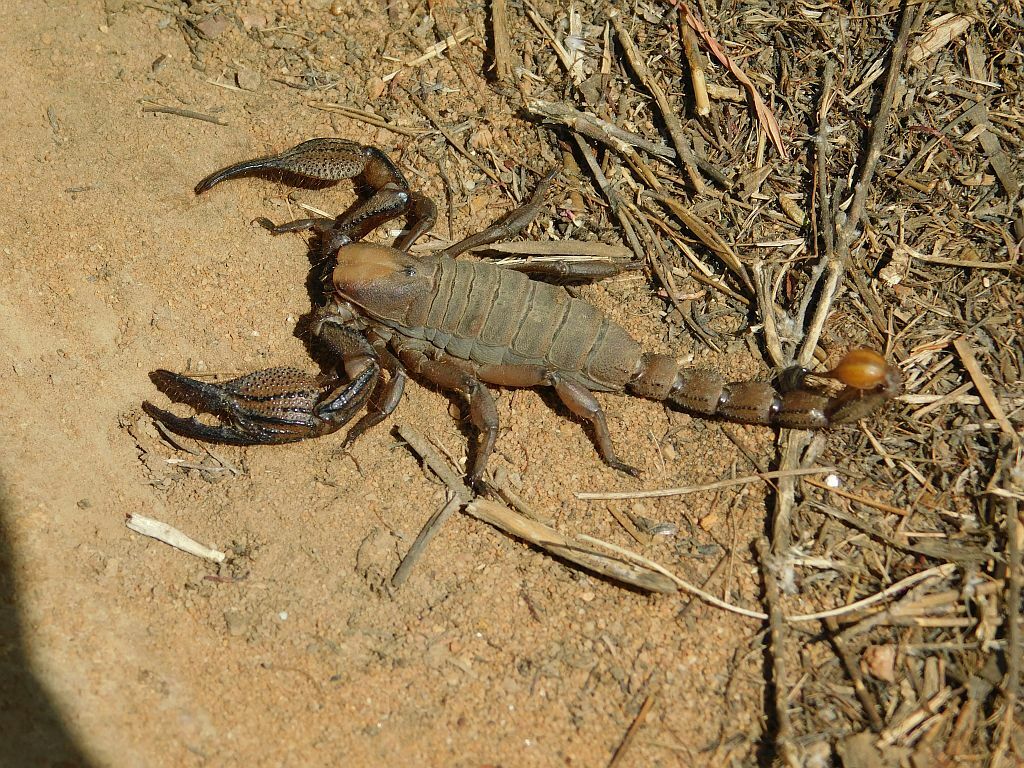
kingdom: Animalia
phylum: Arthropoda
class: Arachnida
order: Scorpiones
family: Scorpionidae
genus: Opistophthalmus
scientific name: Opistophthalmus macer
